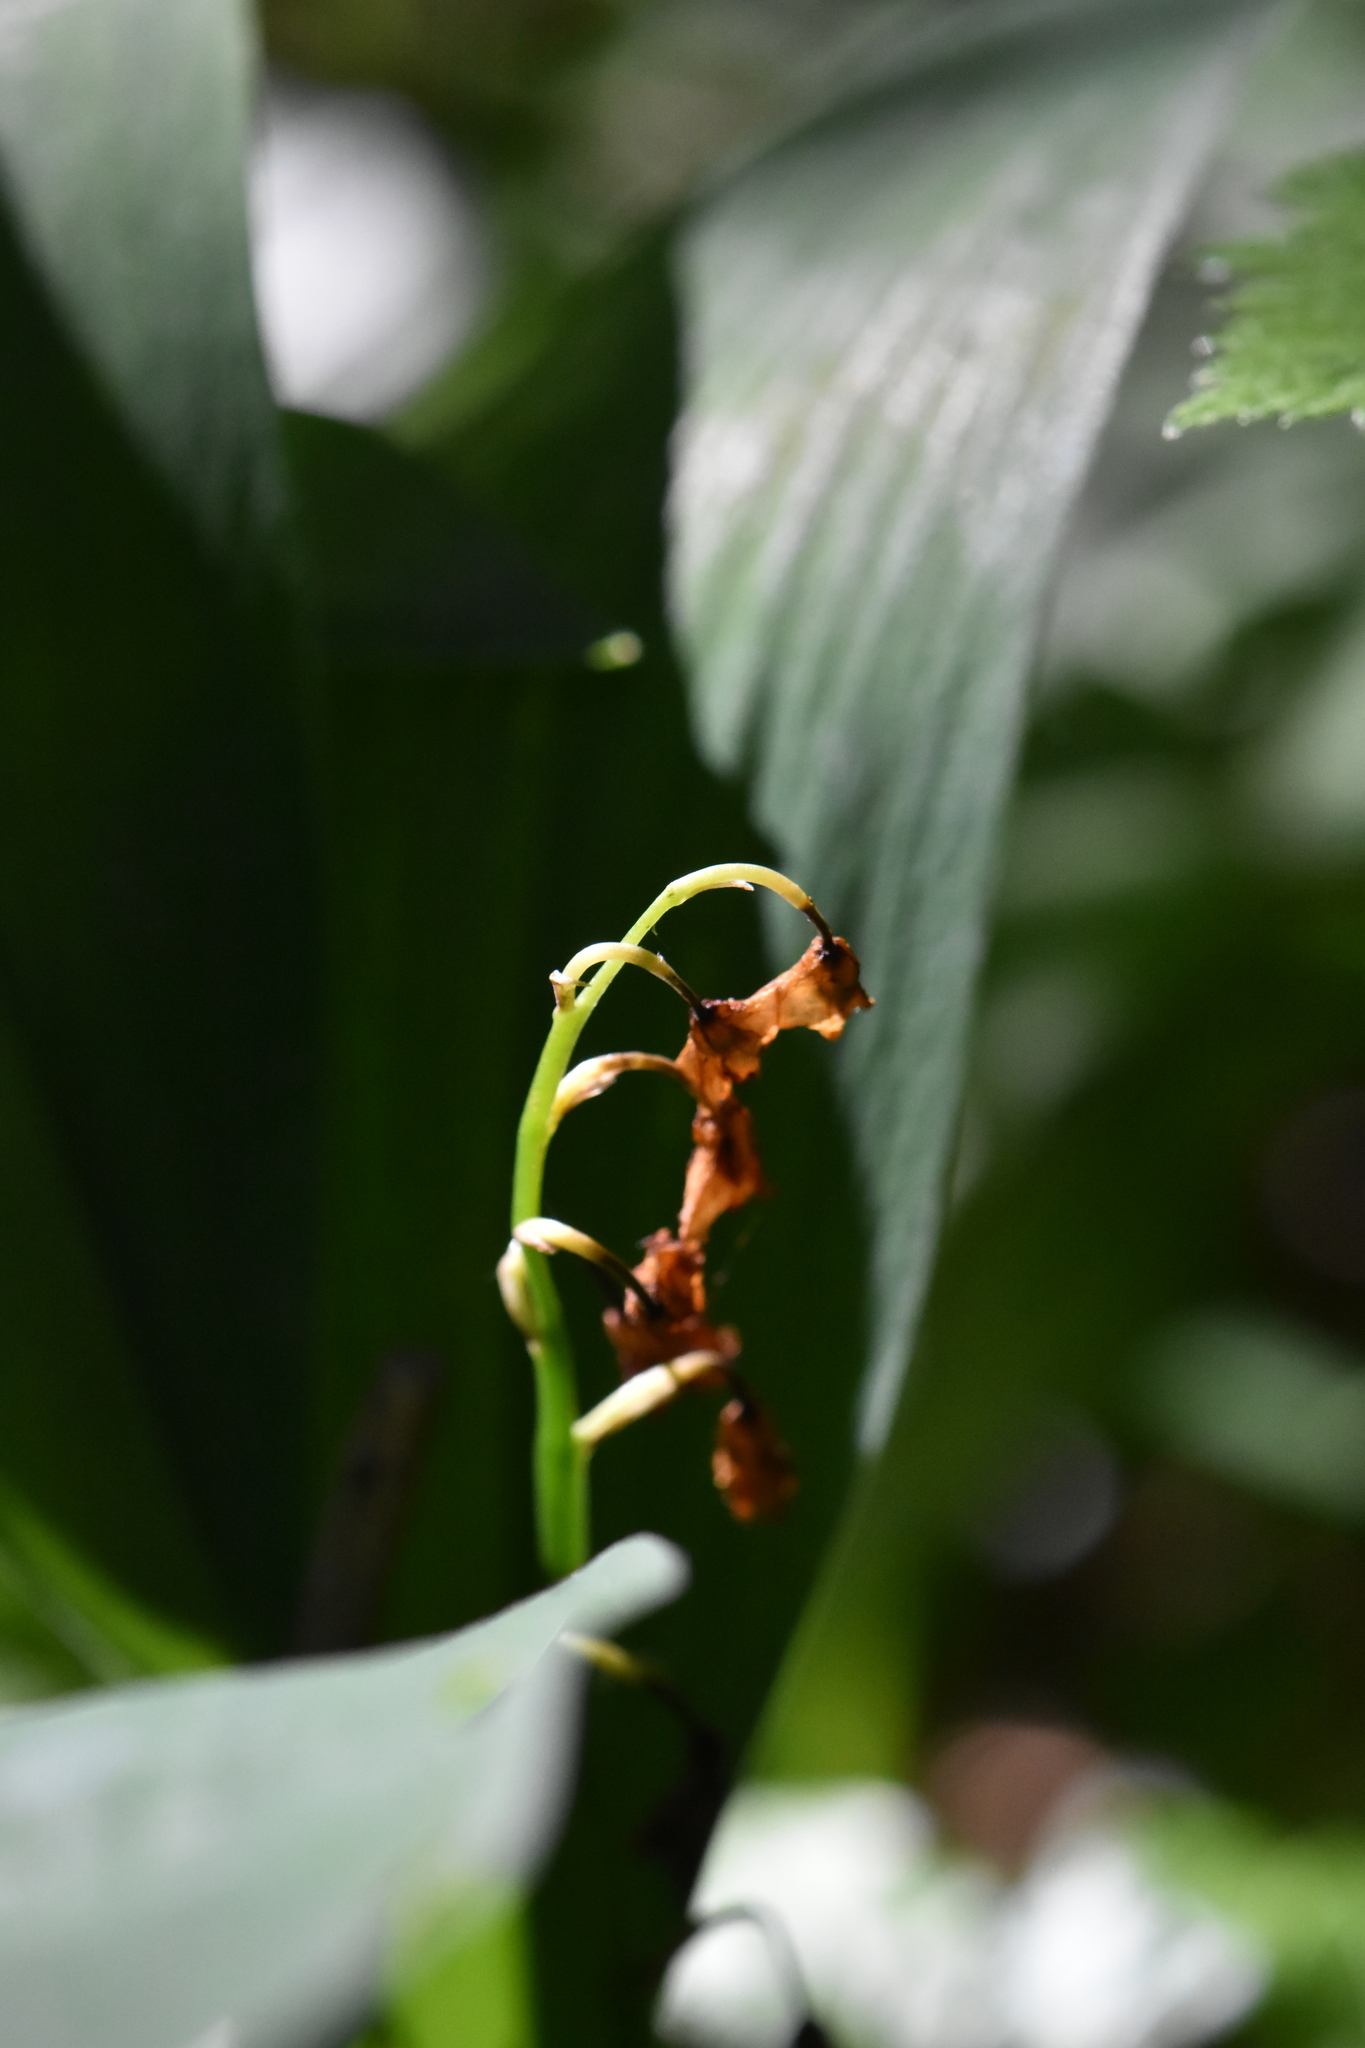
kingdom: Plantae
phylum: Tracheophyta
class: Liliopsida
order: Asparagales
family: Asparagaceae
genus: Convallaria
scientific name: Convallaria majalis
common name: Lily-of-the-valley
